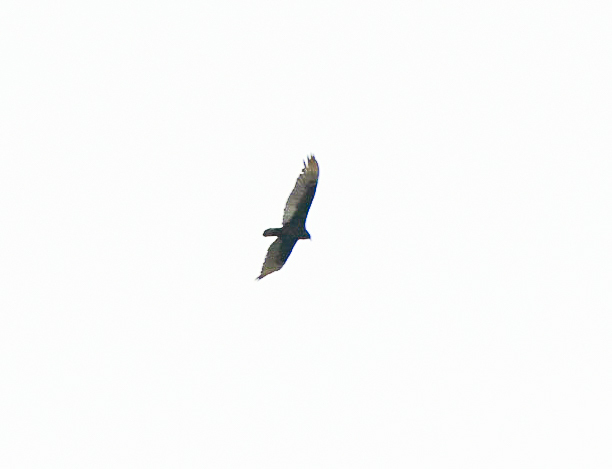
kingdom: Animalia
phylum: Chordata
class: Aves
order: Accipitriformes
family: Cathartidae
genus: Cathartes
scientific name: Cathartes aura
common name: Turkey vulture
